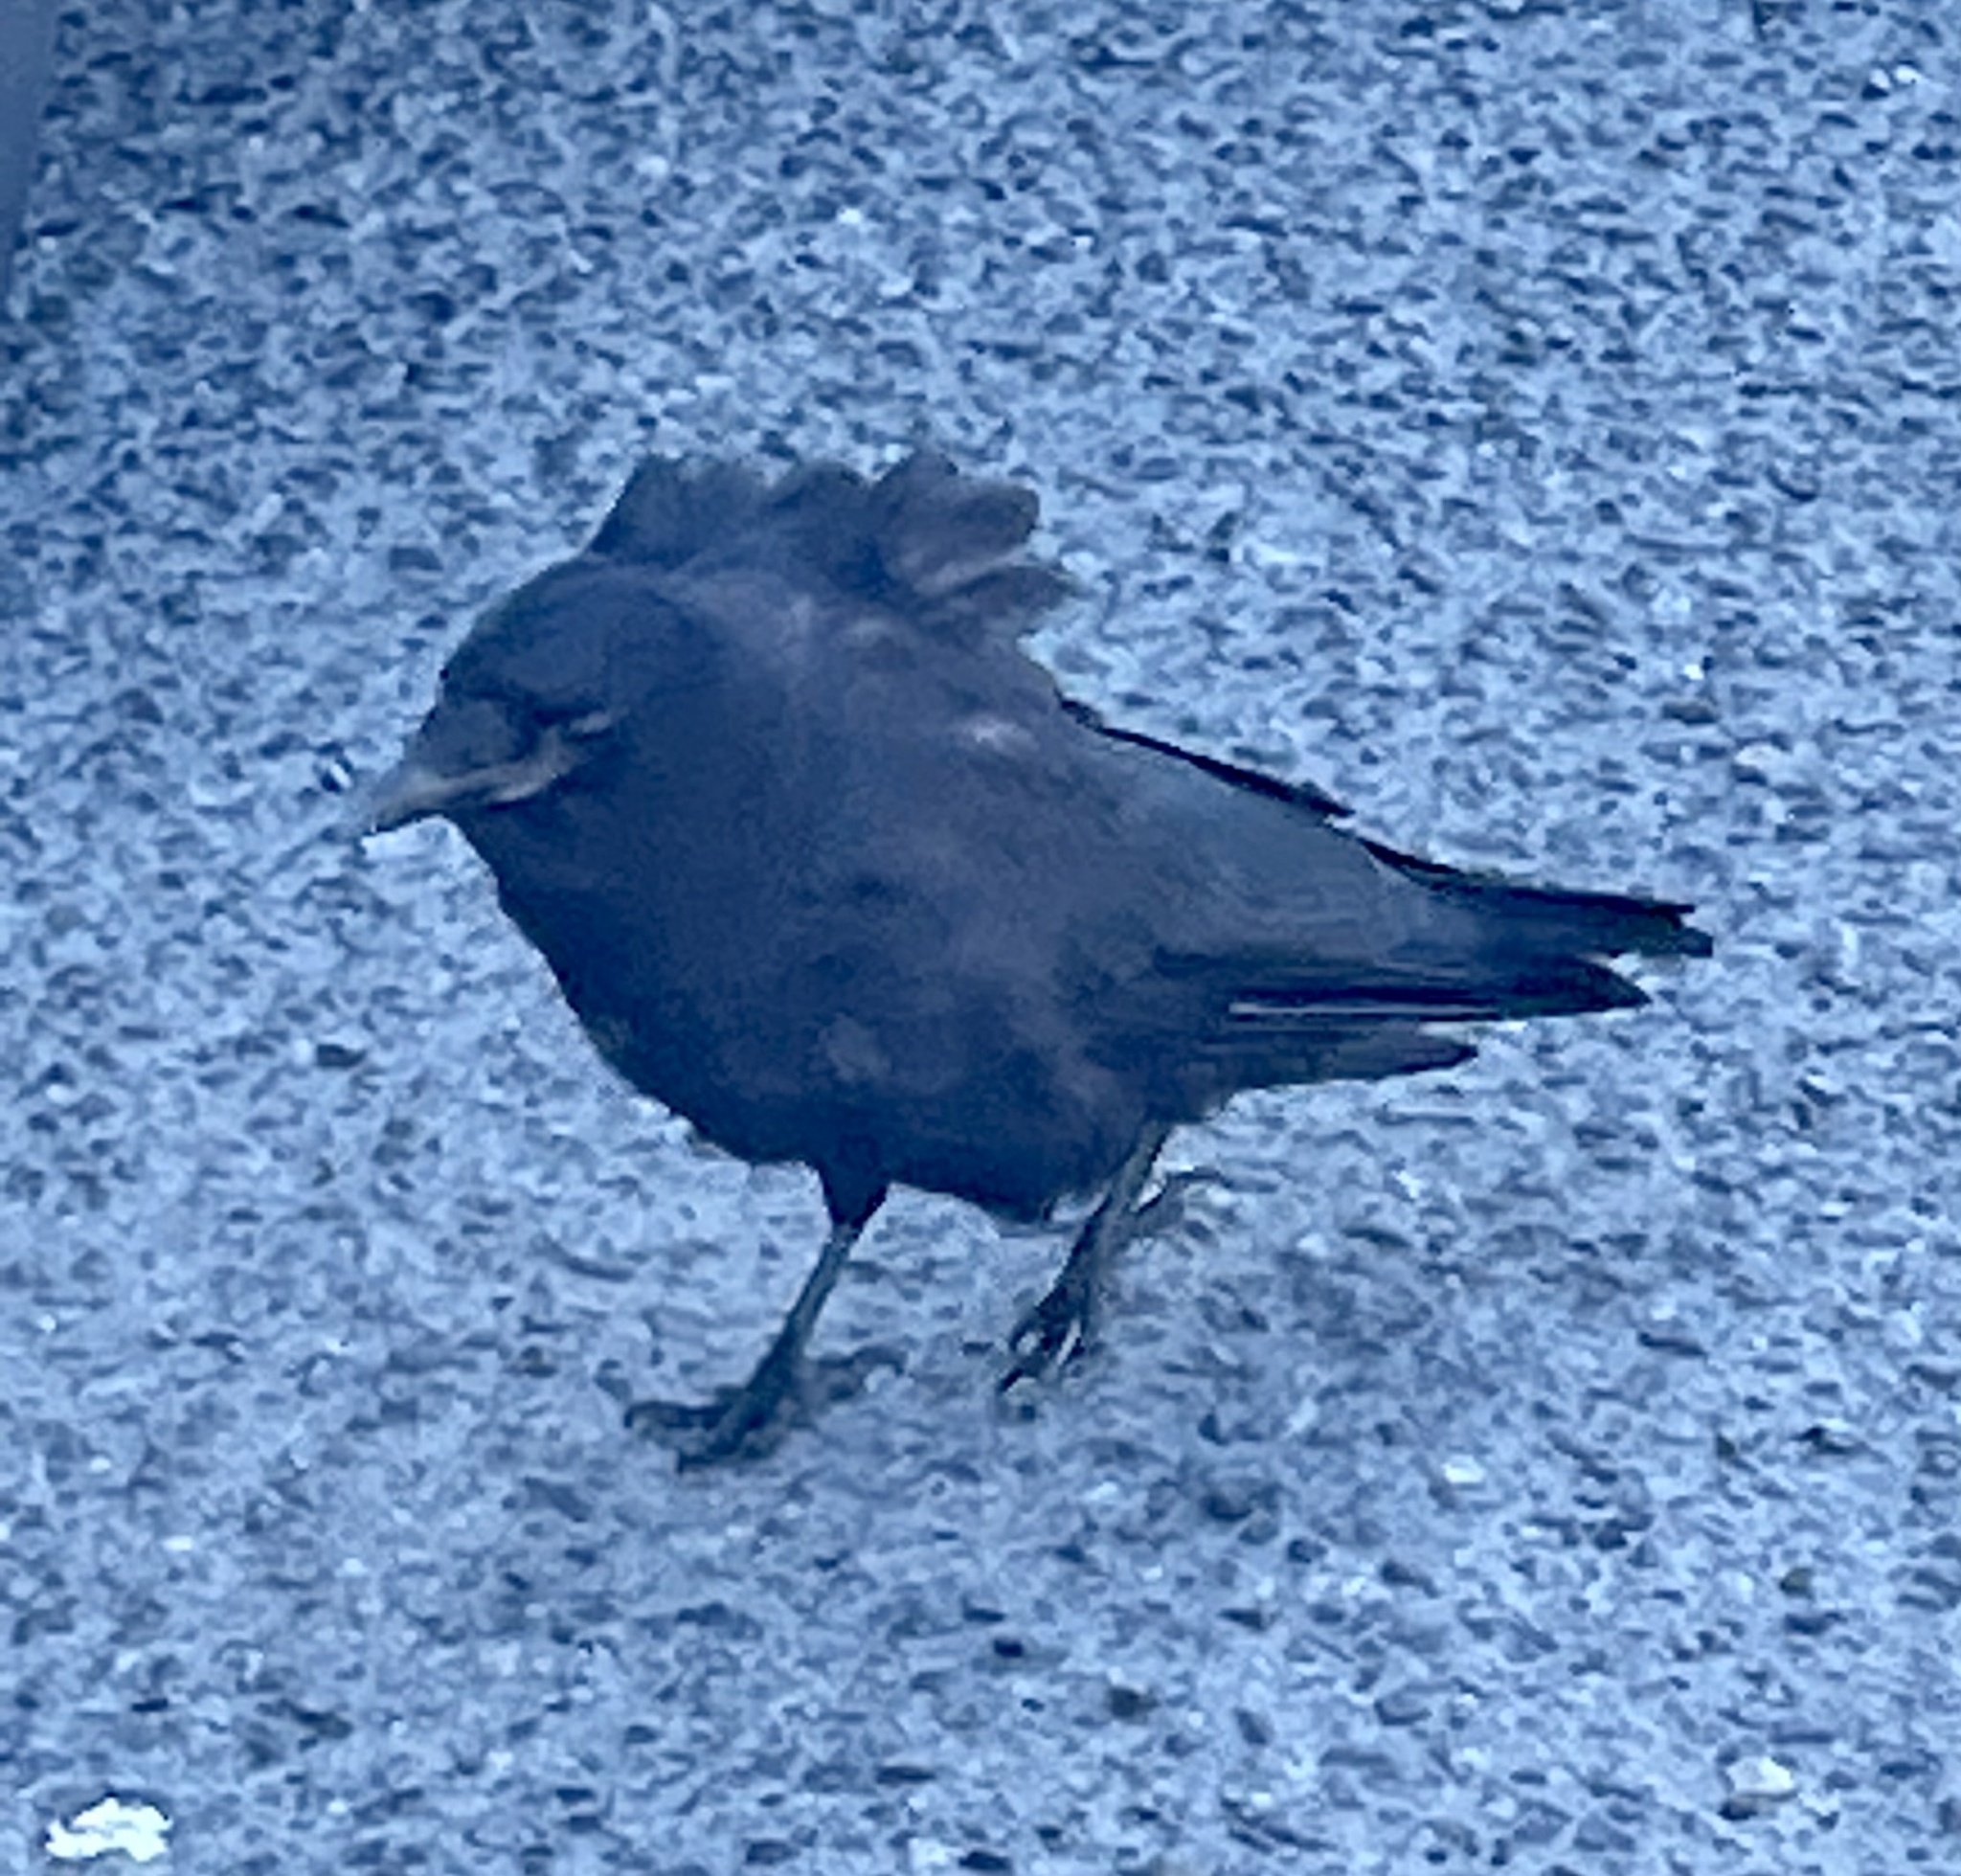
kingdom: Animalia
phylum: Chordata
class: Aves
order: Passeriformes
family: Corvidae
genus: Corvus
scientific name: Corvus brachyrhynchos
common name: American crow
